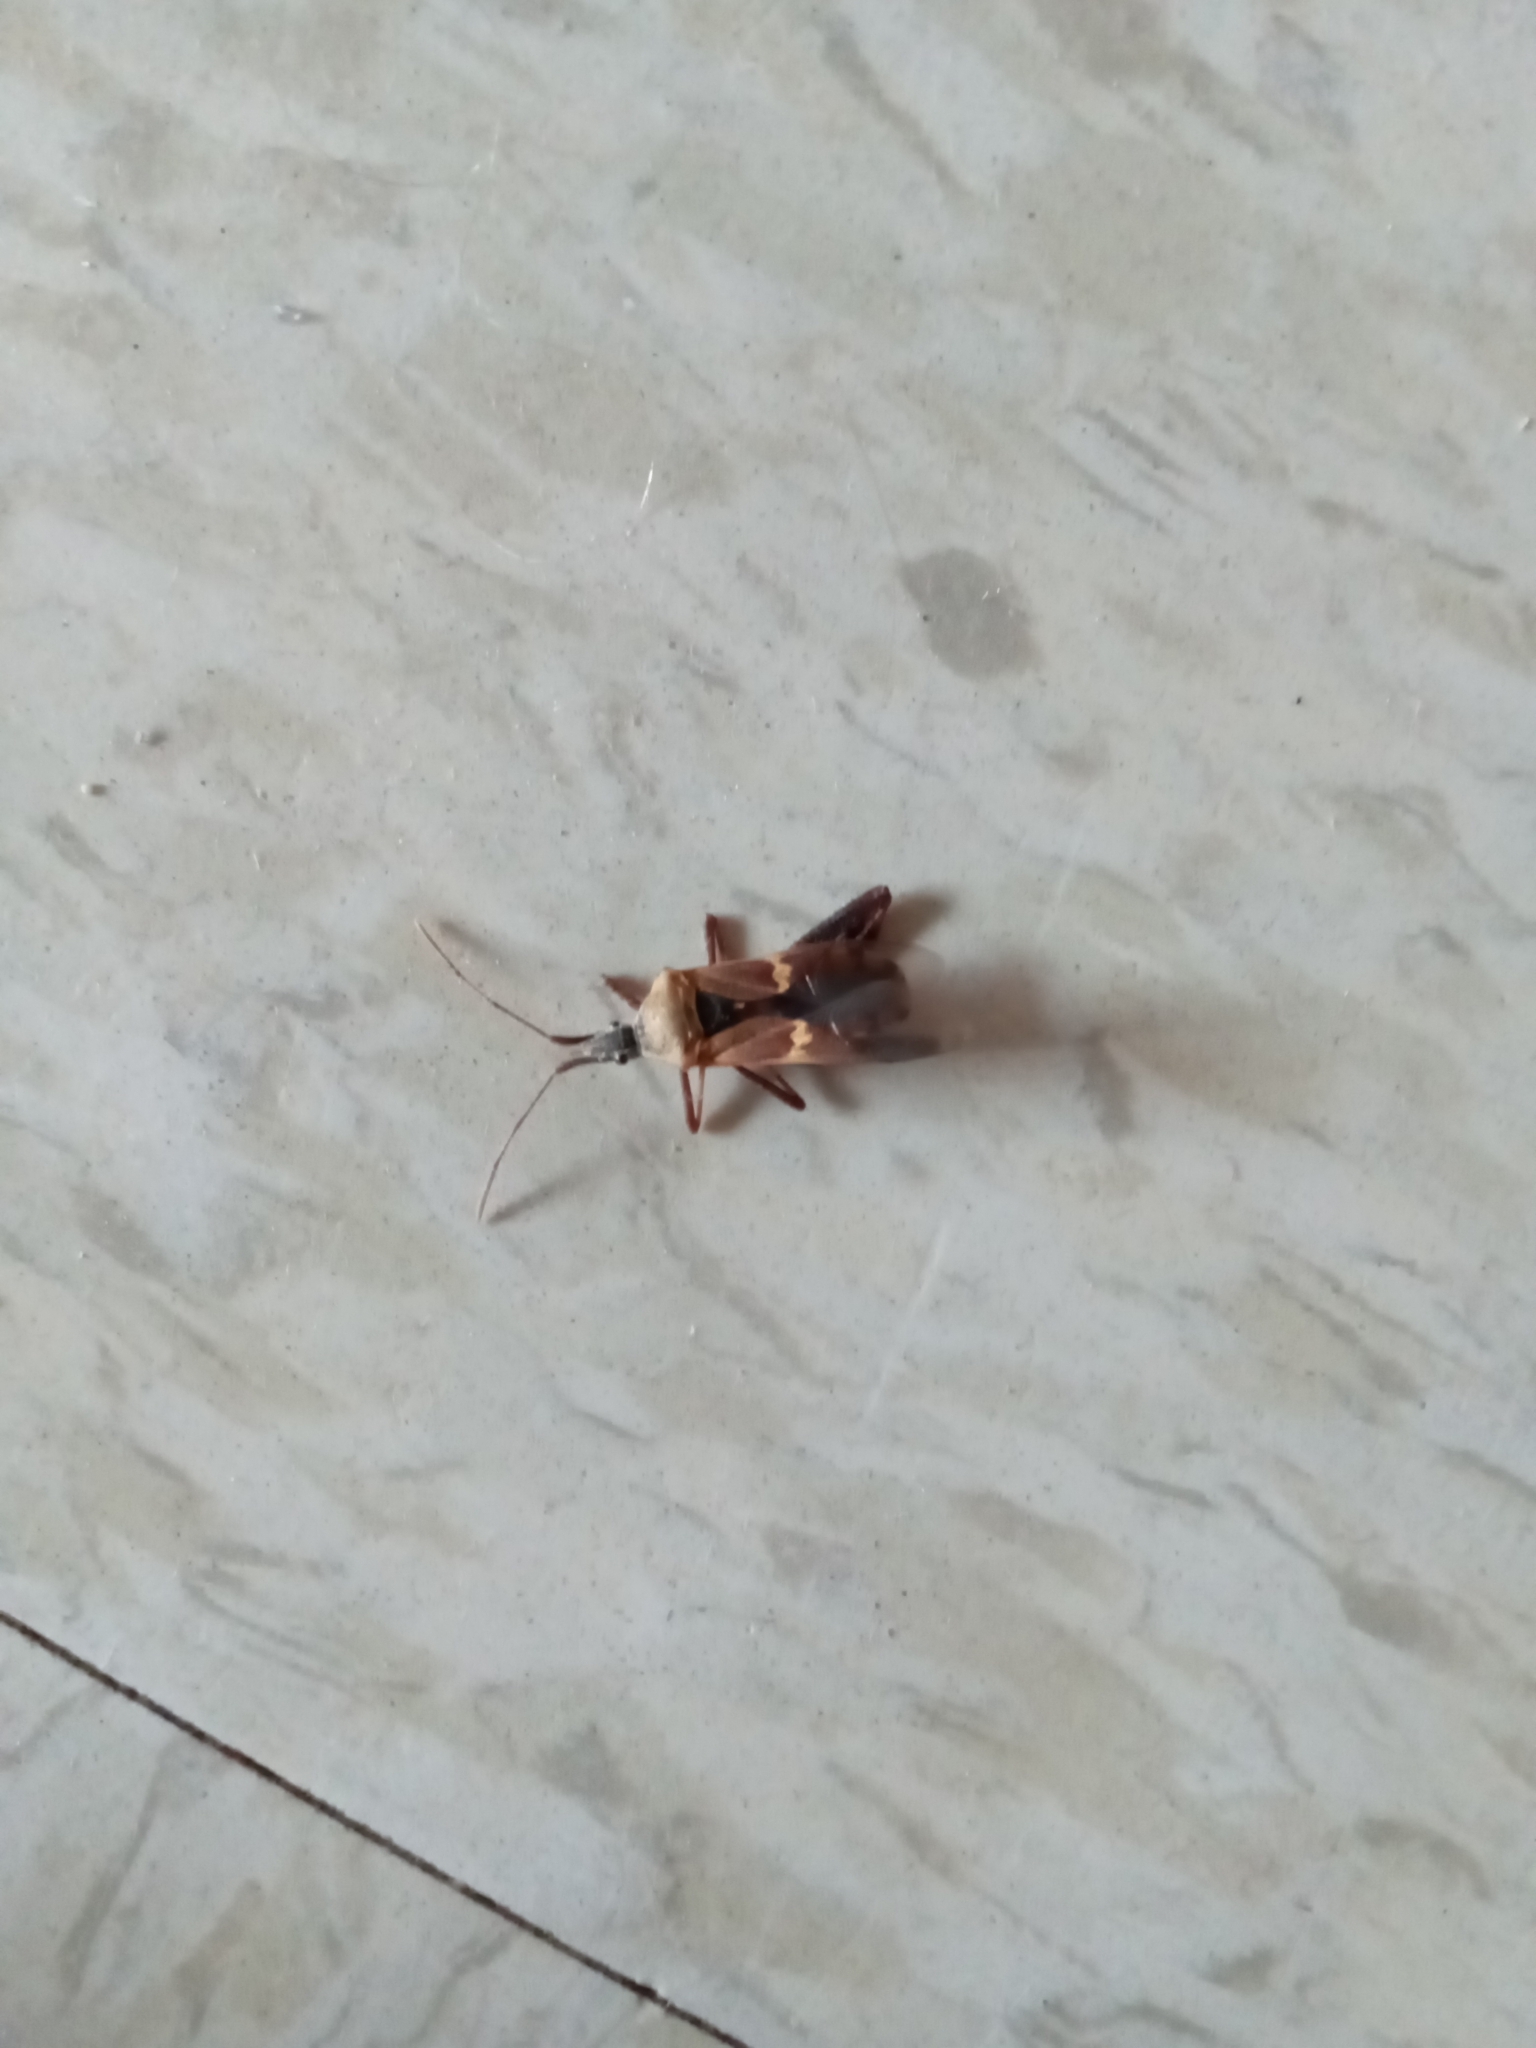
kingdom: Animalia
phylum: Arthropoda
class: Insecta
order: Hemiptera
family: Coreidae
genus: Leptoglossus
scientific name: Leptoglossus clypealis
